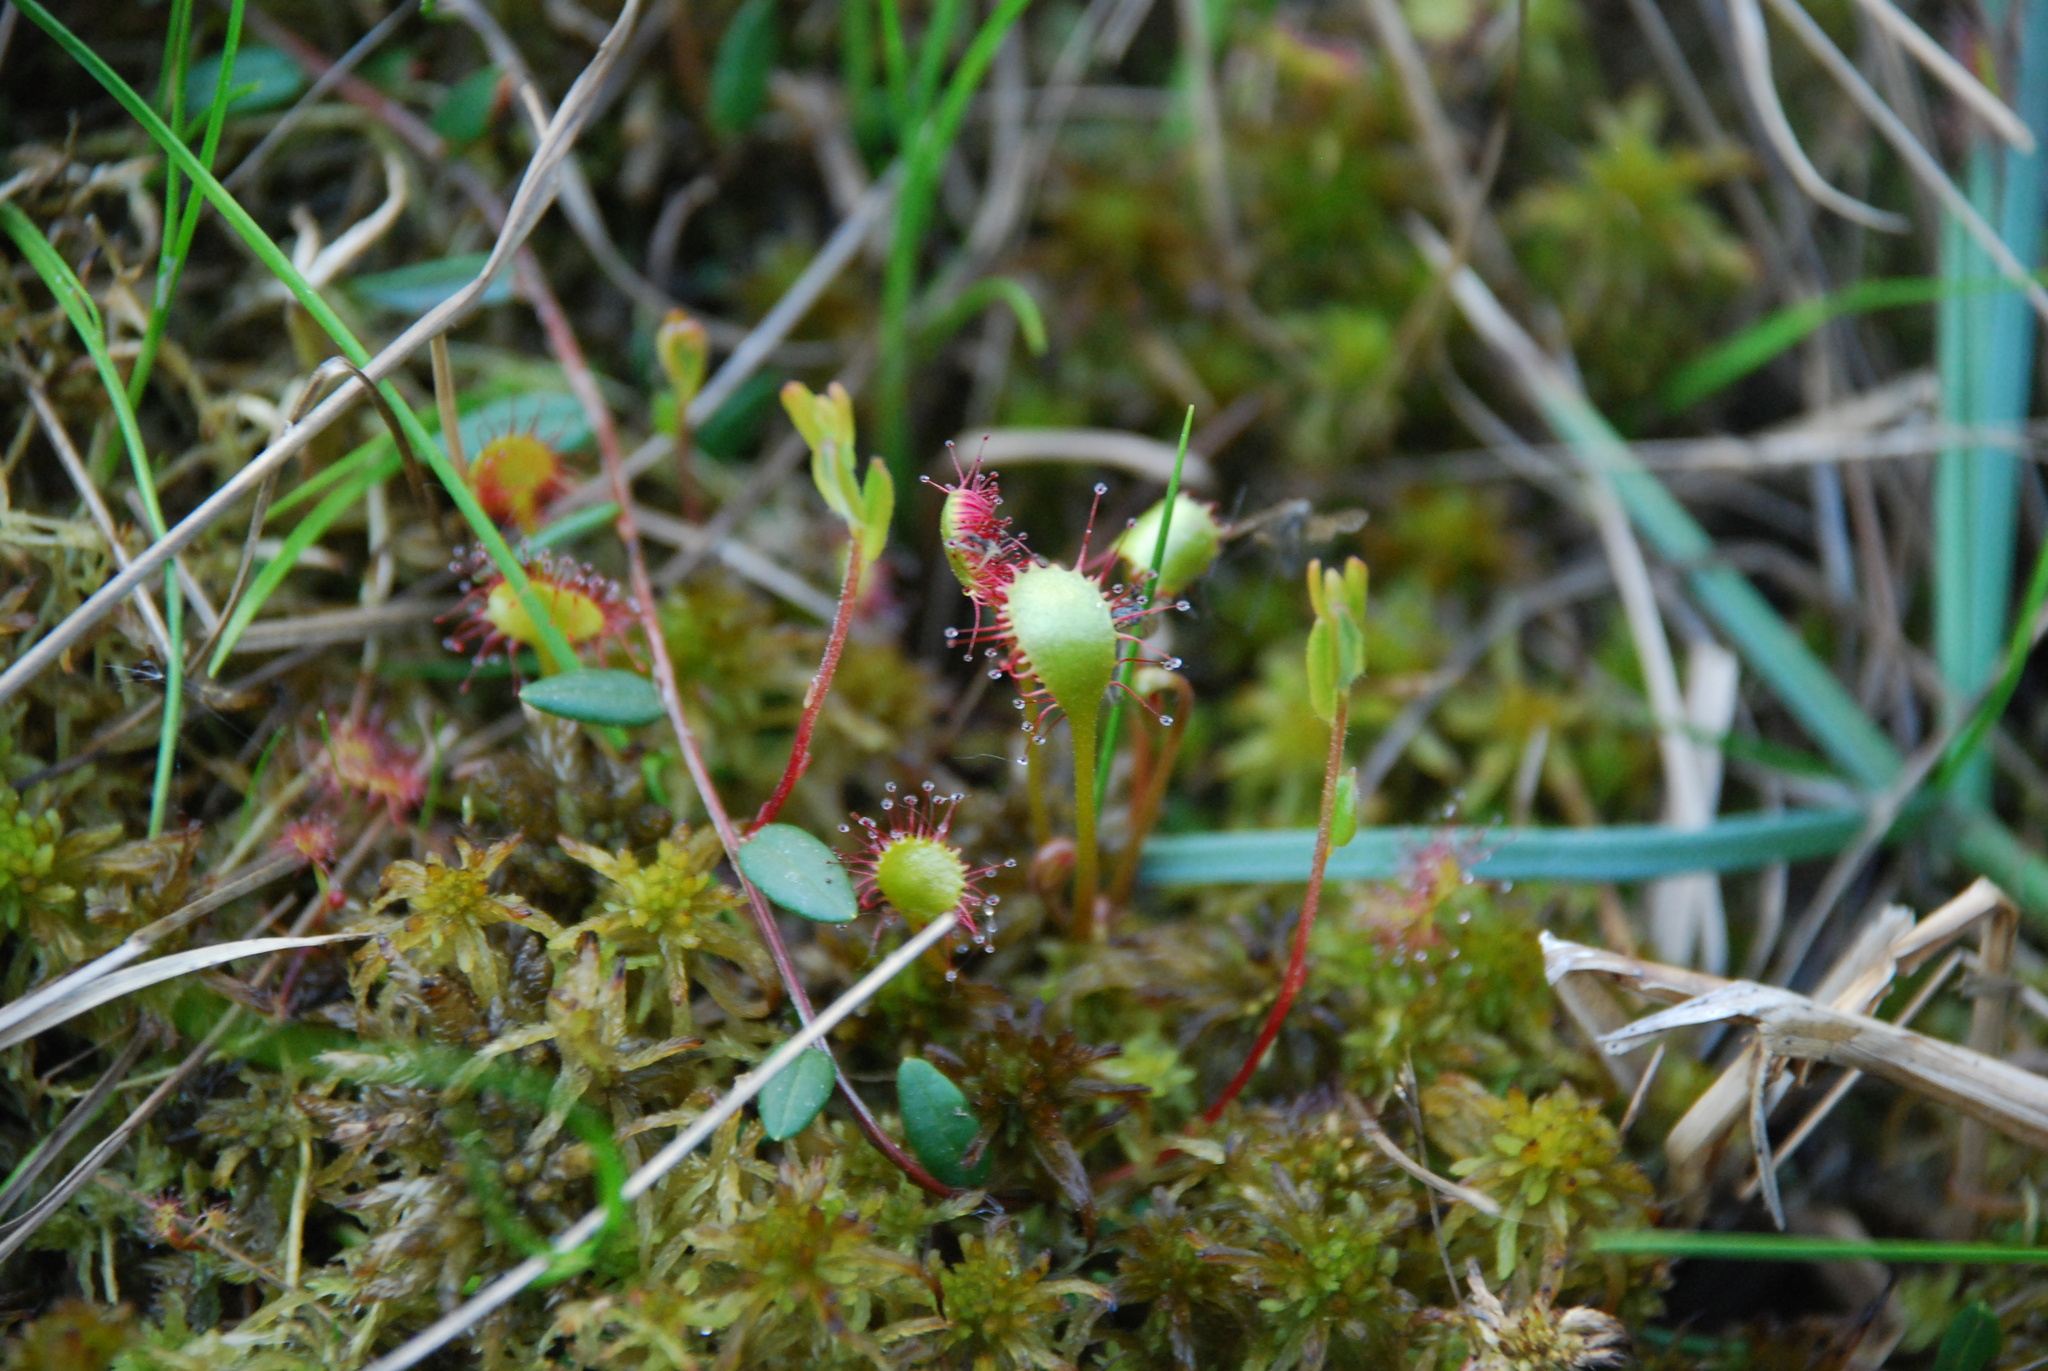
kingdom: Plantae
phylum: Tracheophyta
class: Magnoliopsida
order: Caryophyllales
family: Droseraceae
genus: Drosera
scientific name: Drosera rotundifolia
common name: Round-leaved sundew
